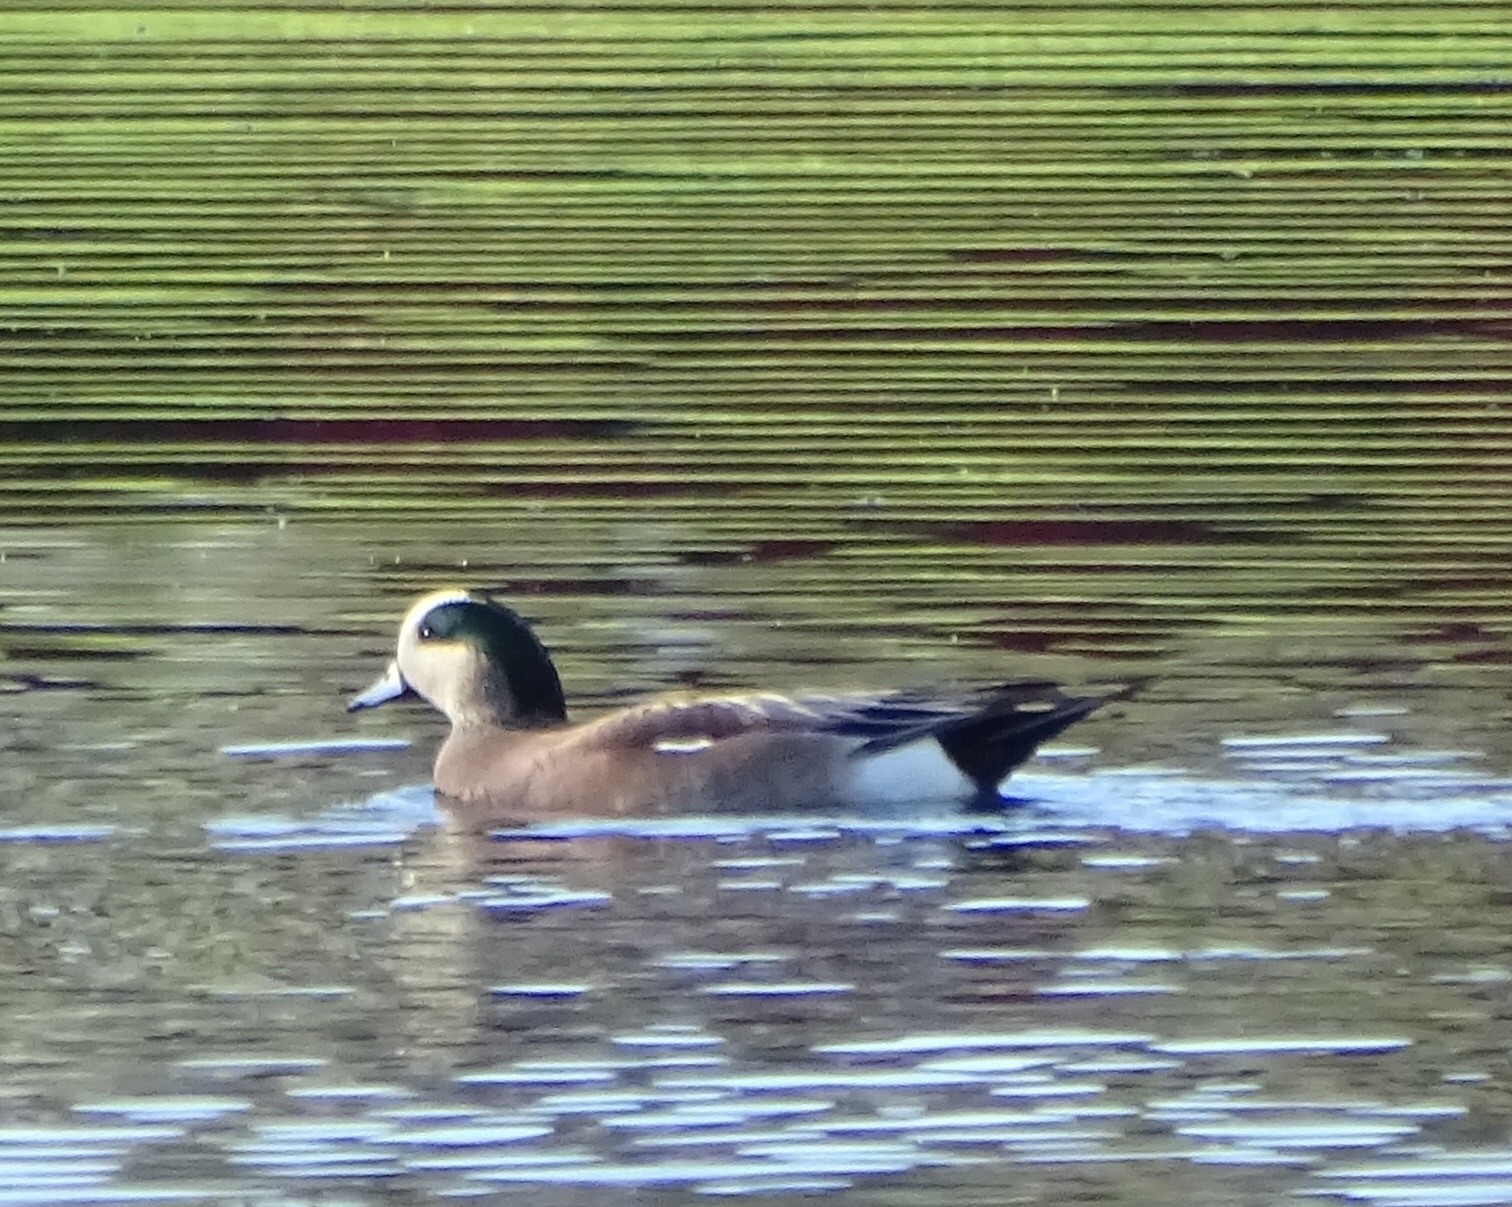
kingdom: Animalia
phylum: Chordata
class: Aves
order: Anseriformes
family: Anatidae
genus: Mareca
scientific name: Mareca americana
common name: American wigeon
